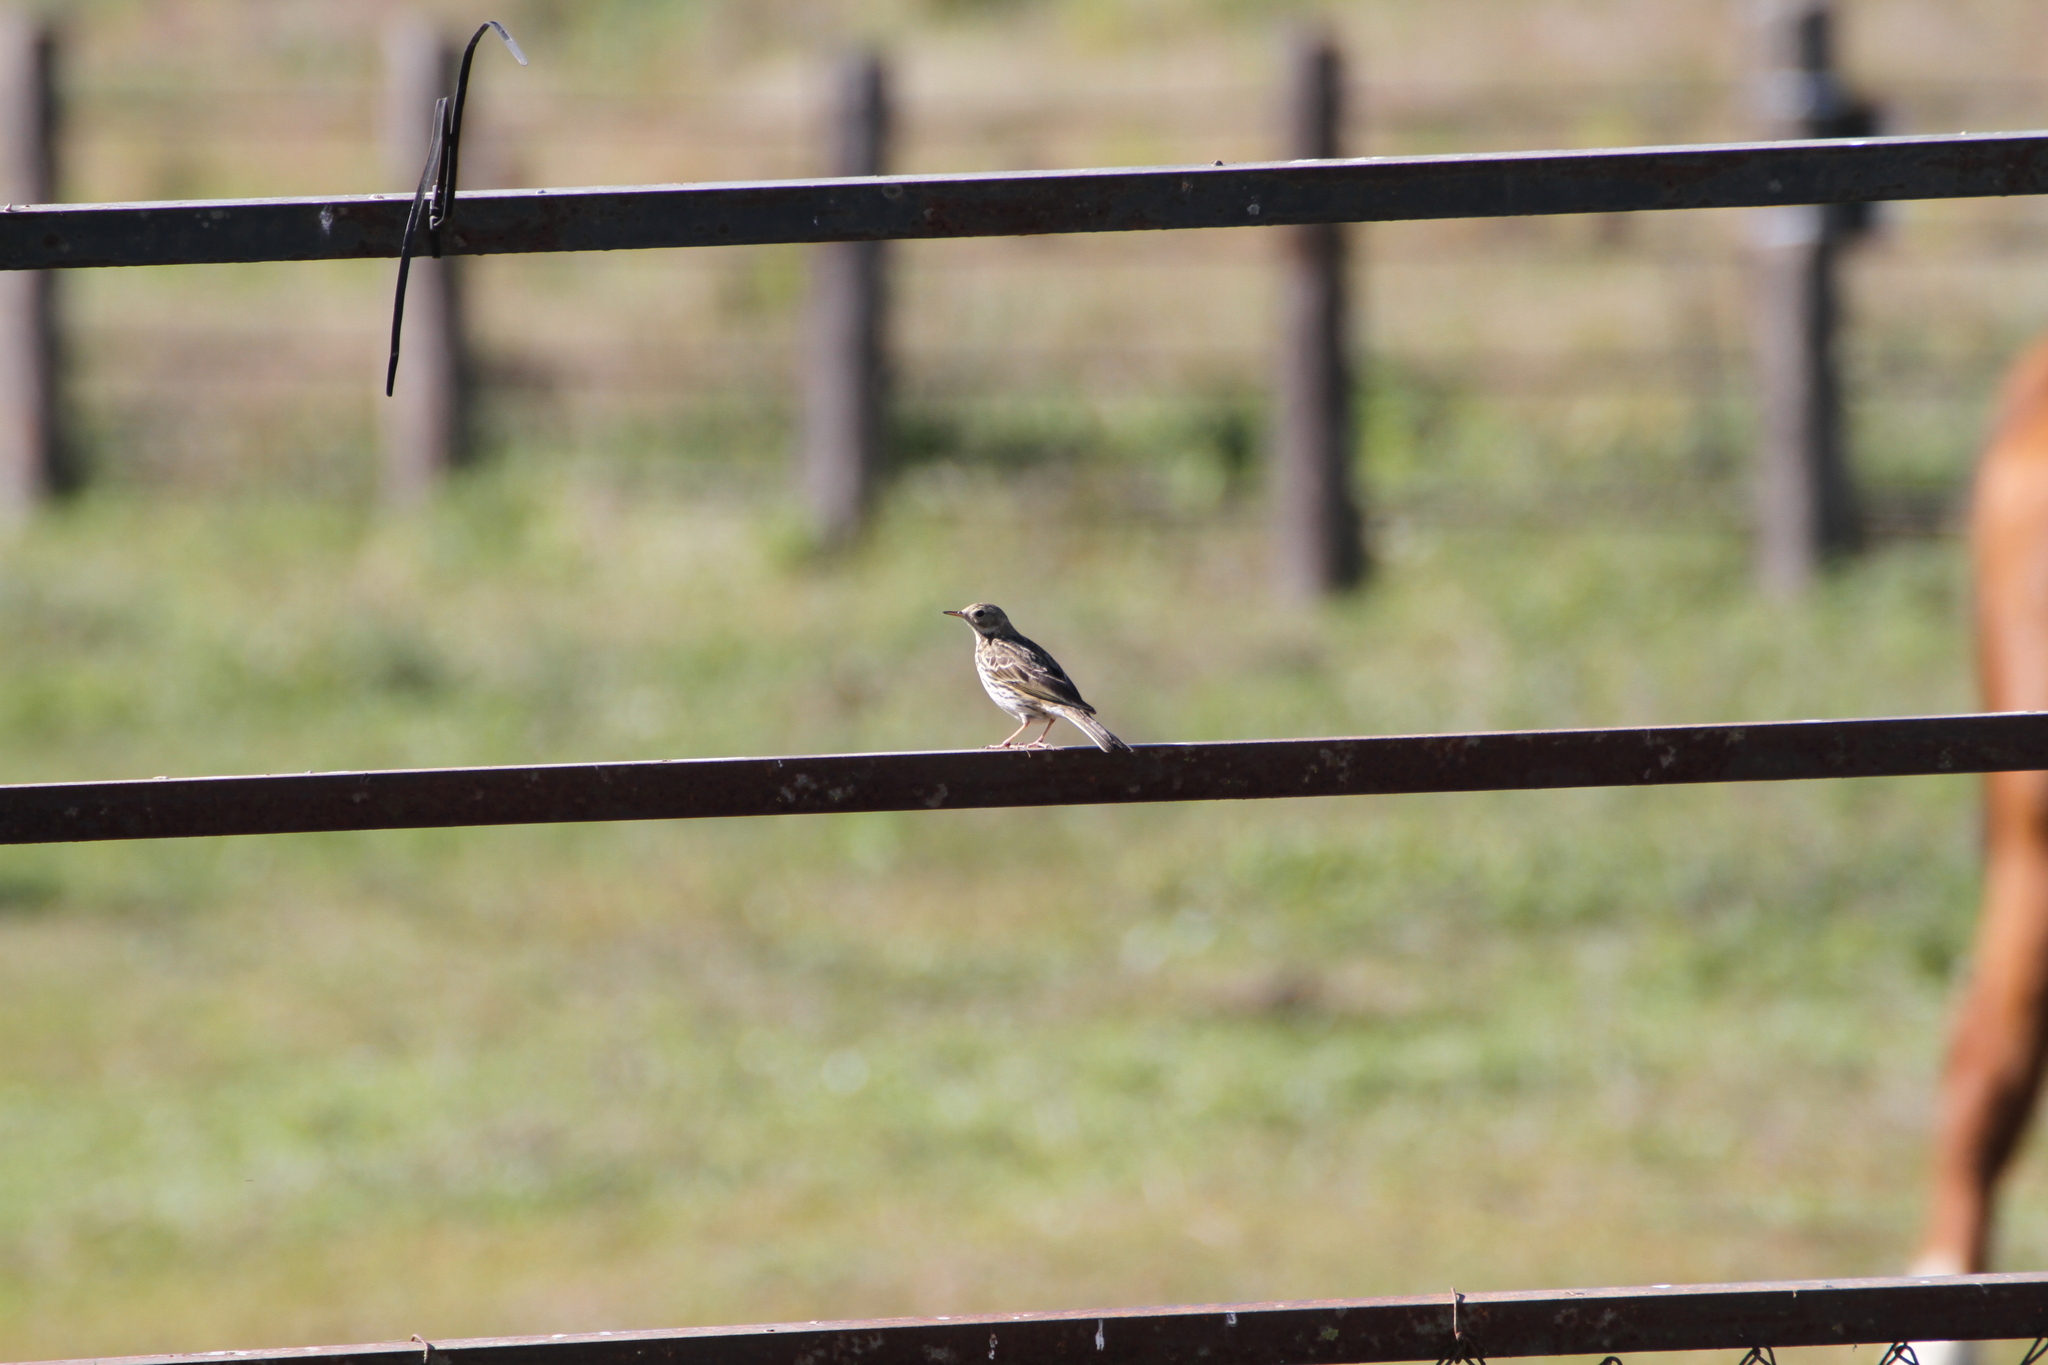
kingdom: Animalia
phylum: Chordata
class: Aves
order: Passeriformes
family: Motacillidae
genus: Anthus
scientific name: Anthus pratensis
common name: Meadow pipit
